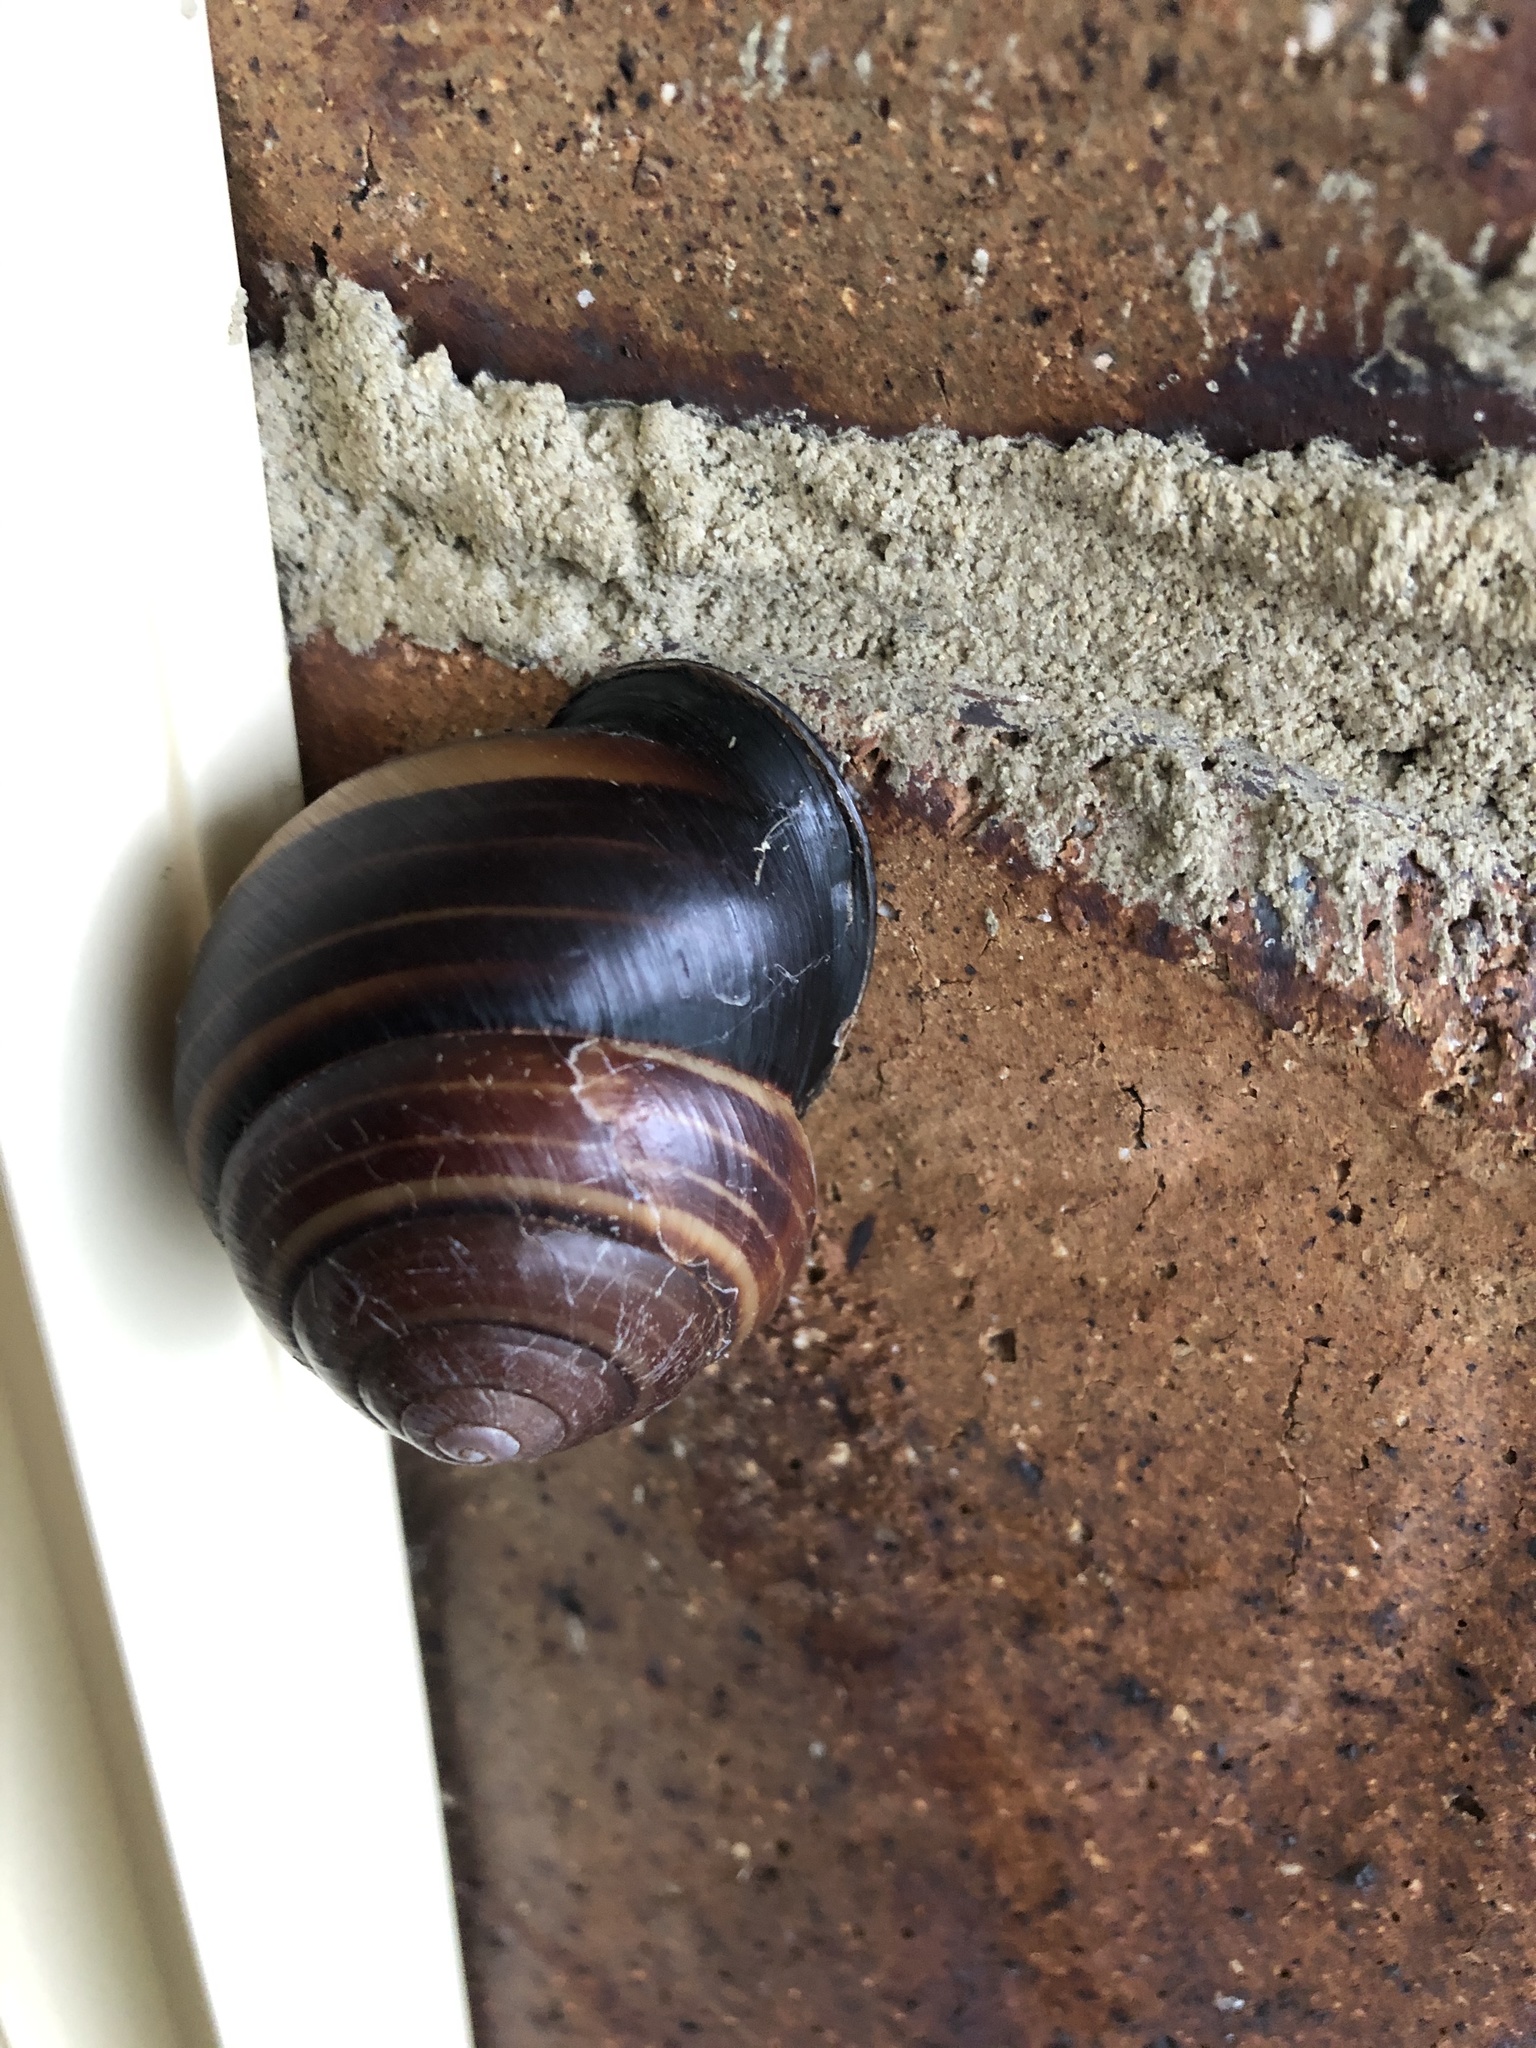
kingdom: Animalia
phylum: Mollusca
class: Gastropoda
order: Stylommatophora
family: Camaenidae
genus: Sphaerospira
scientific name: Sphaerospira fraseri
